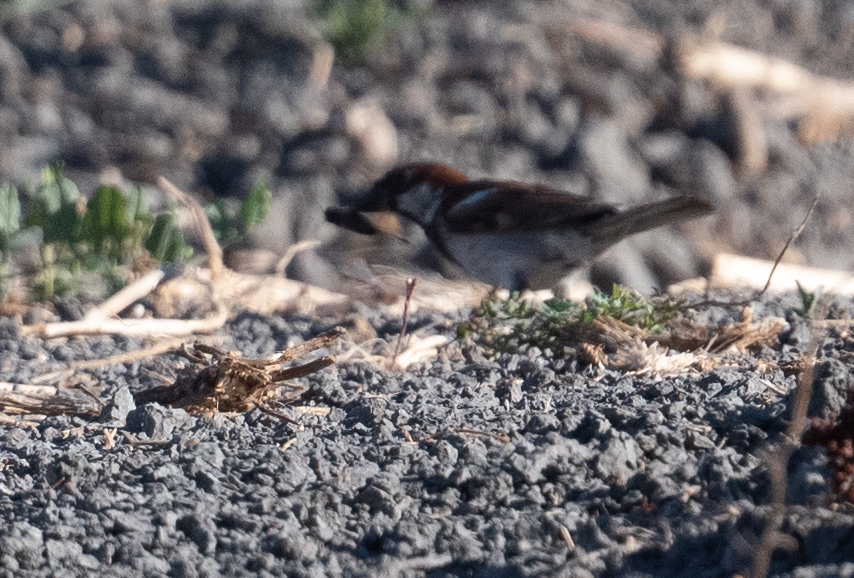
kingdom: Animalia
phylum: Chordata
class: Aves
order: Passeriformes
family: Passeridae
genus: Passer
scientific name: Passer domesticus
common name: House sparrow
